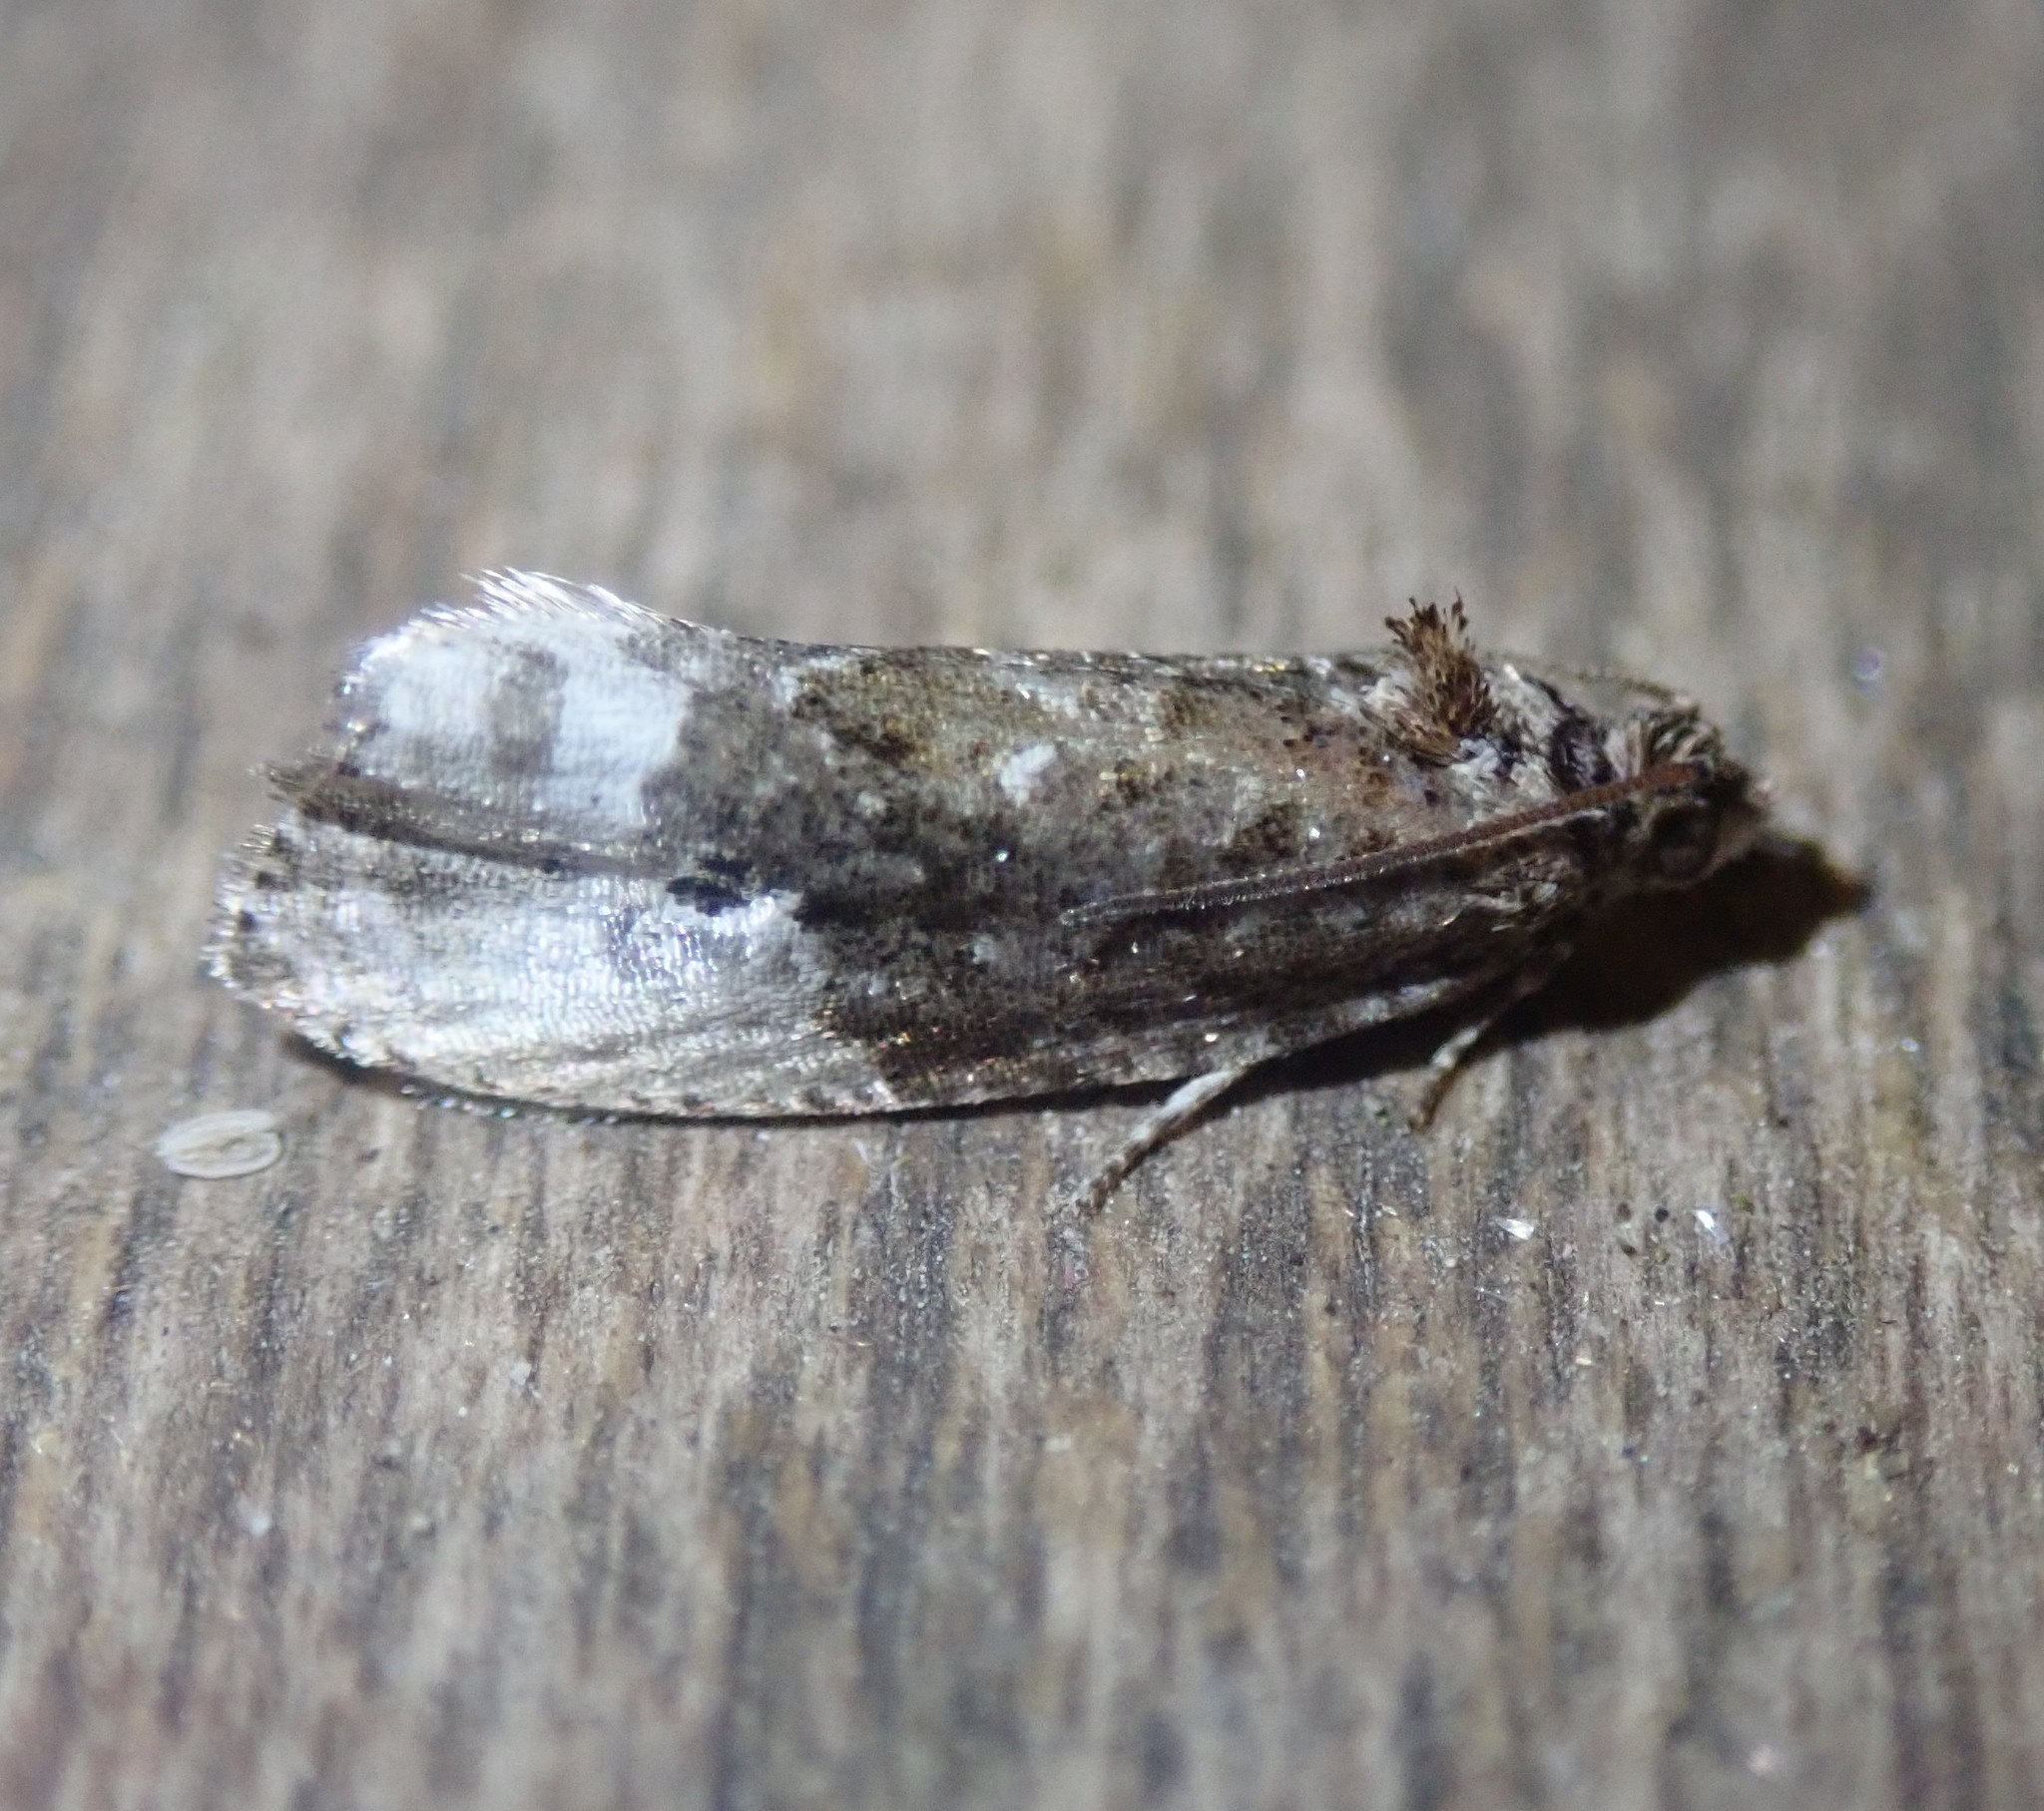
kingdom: Animalia
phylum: Arthropoda
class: Insecta
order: Lepidoptera
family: Tortricidae
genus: Hedya
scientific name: Hedya nubiferana
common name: Marbled orchard tortrix
